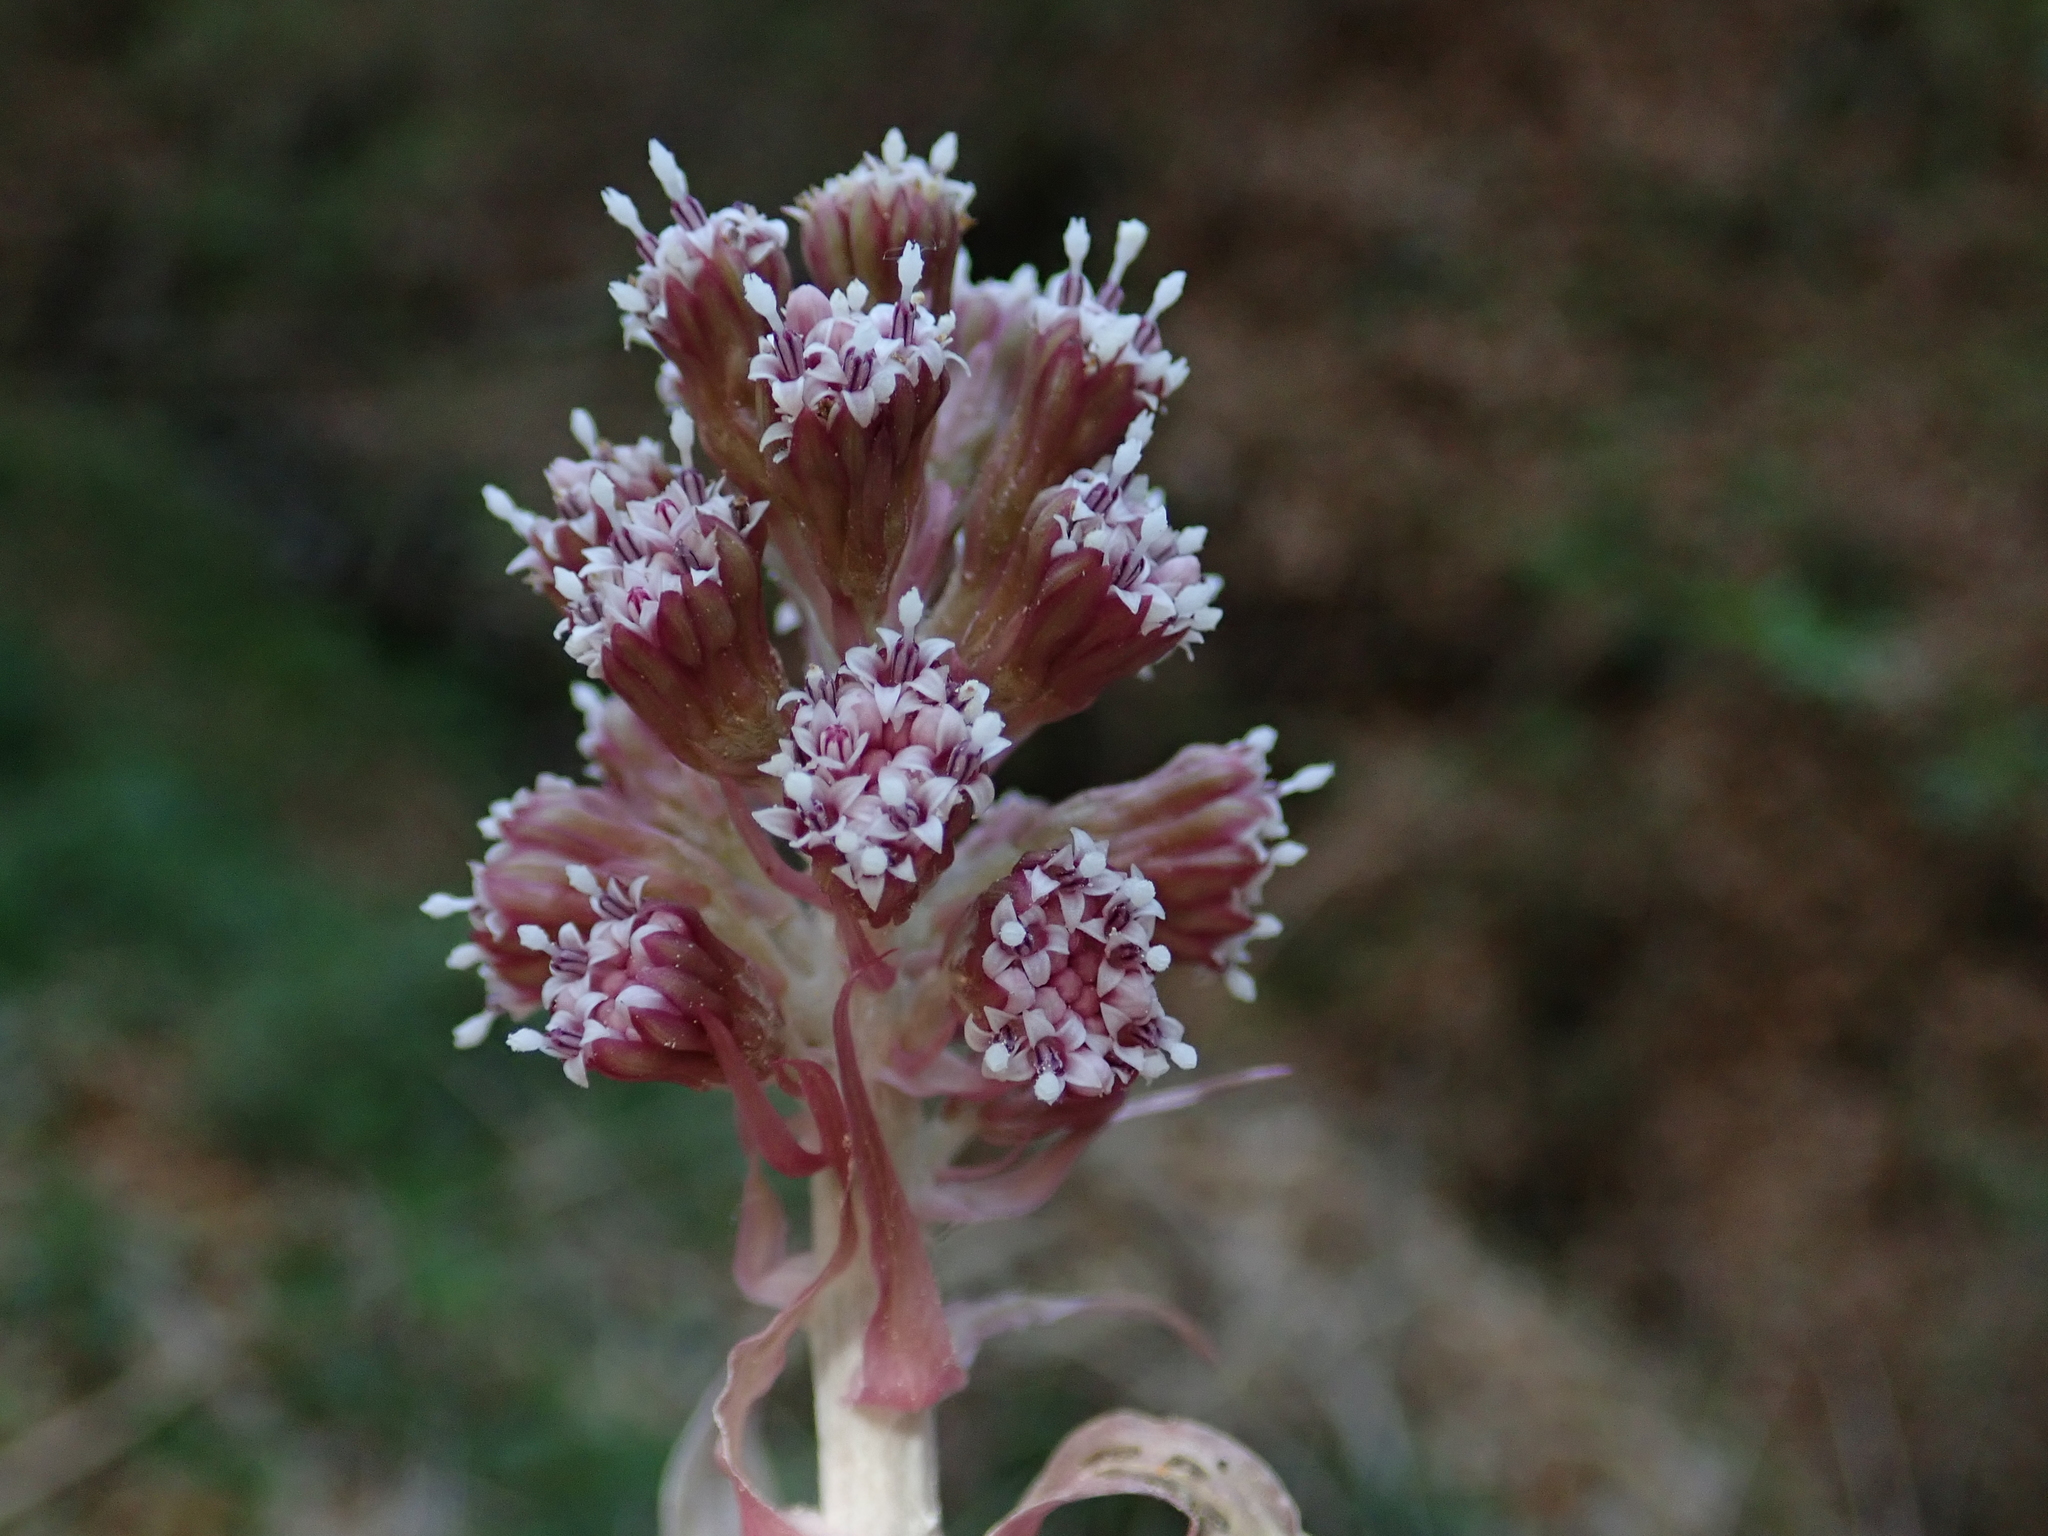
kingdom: Plantae
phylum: Tracheophyta
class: Magnoliopsida
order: Asterales
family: Asteraceae
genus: Petasites
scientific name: Petasites hybridus
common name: Butterbur
